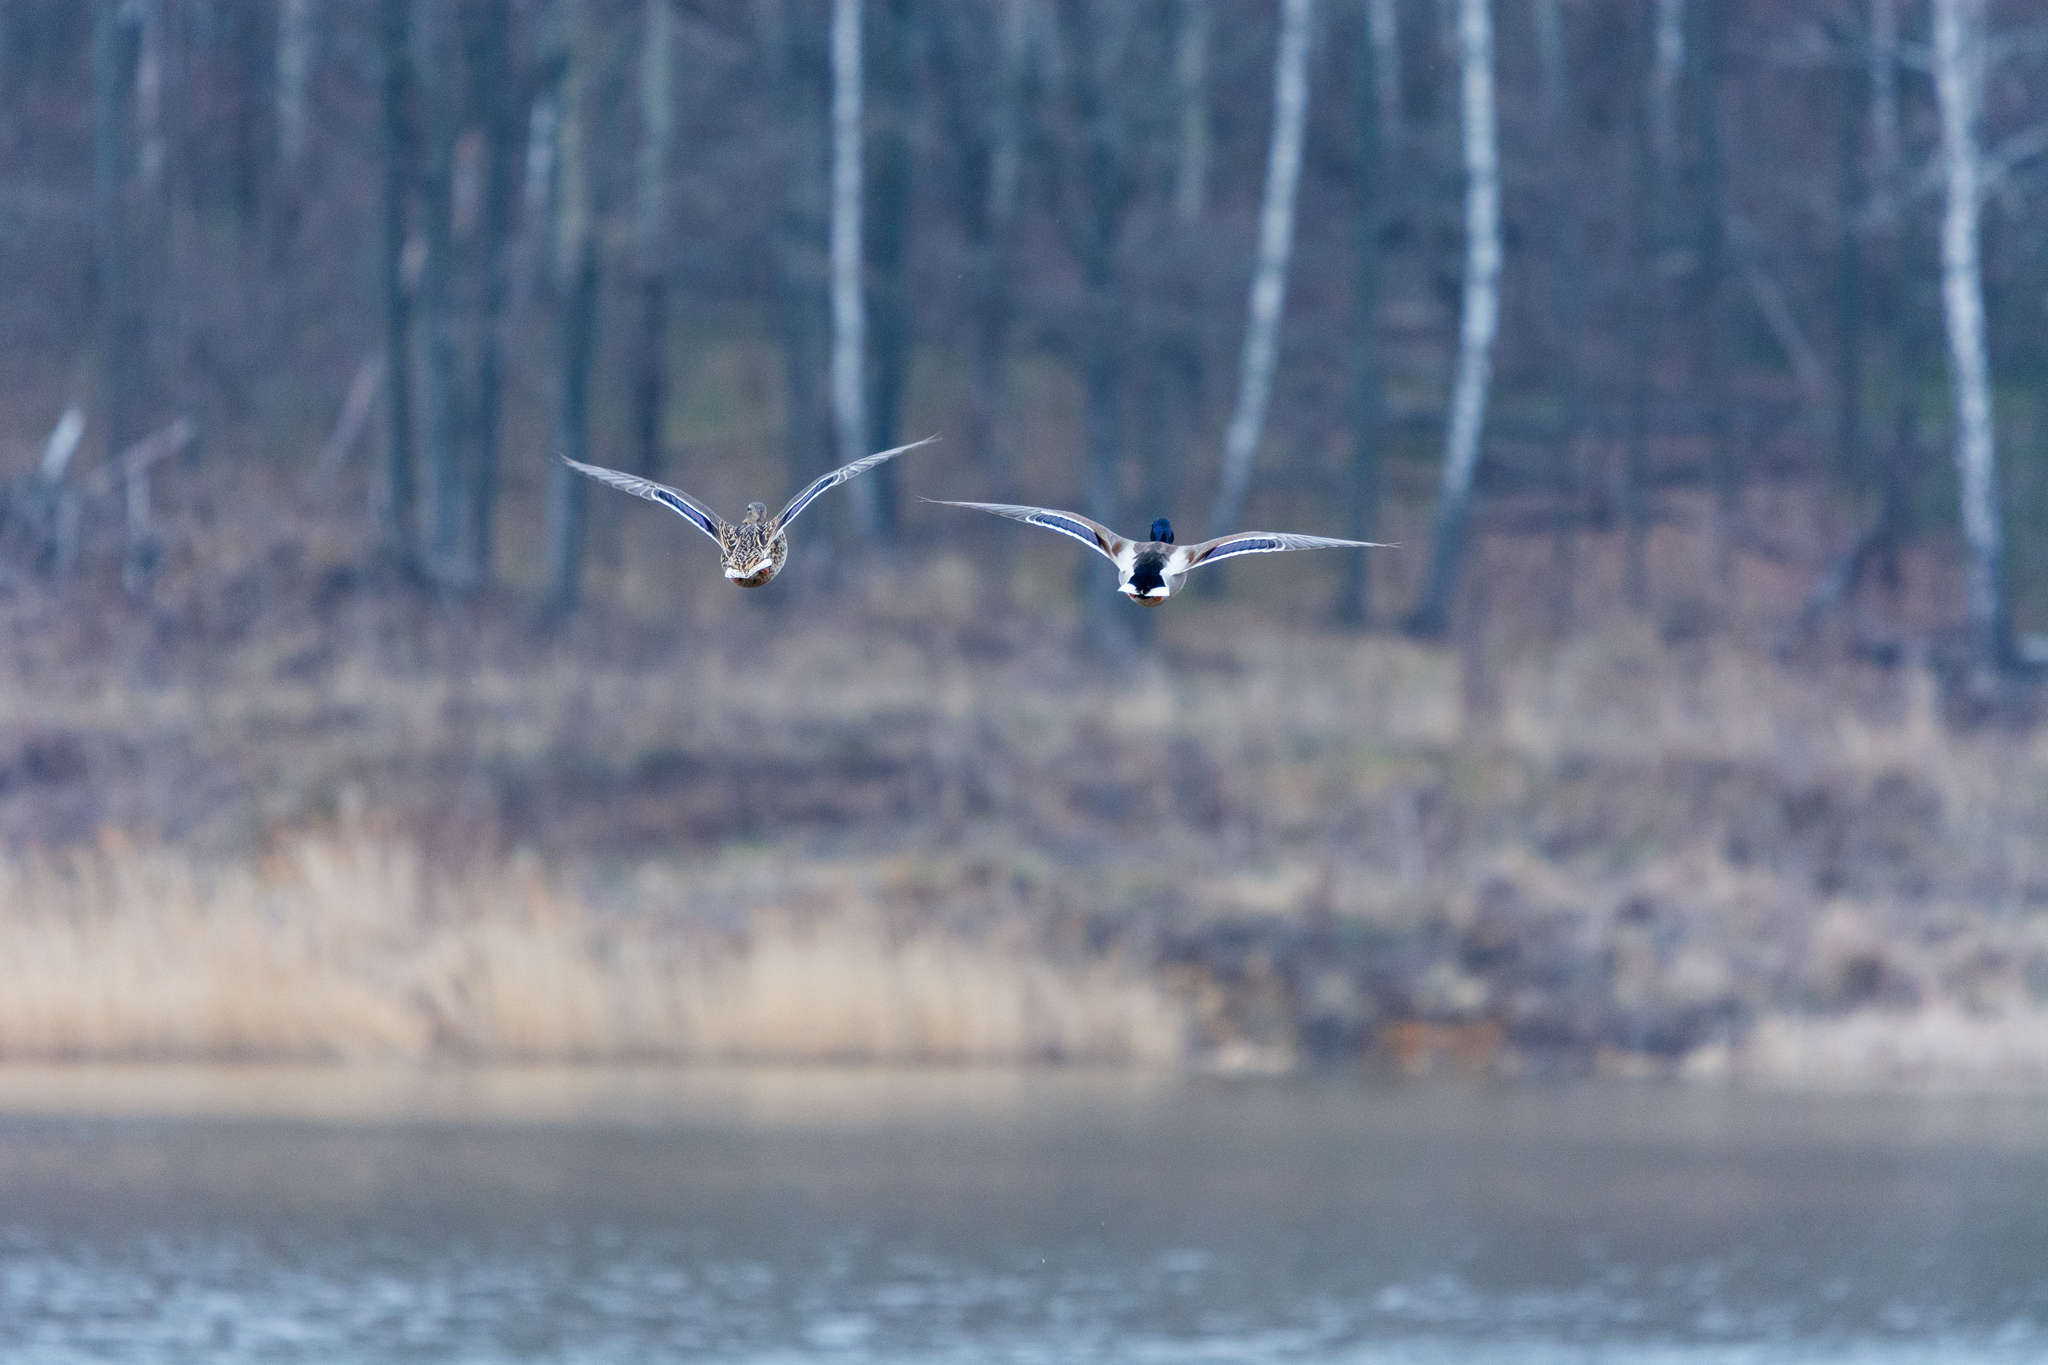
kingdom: Animalia
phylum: Chordata
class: Aves
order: Anseriformes
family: Anatidae
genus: Anas
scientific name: Anas platyrhynchos
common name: Mallard
